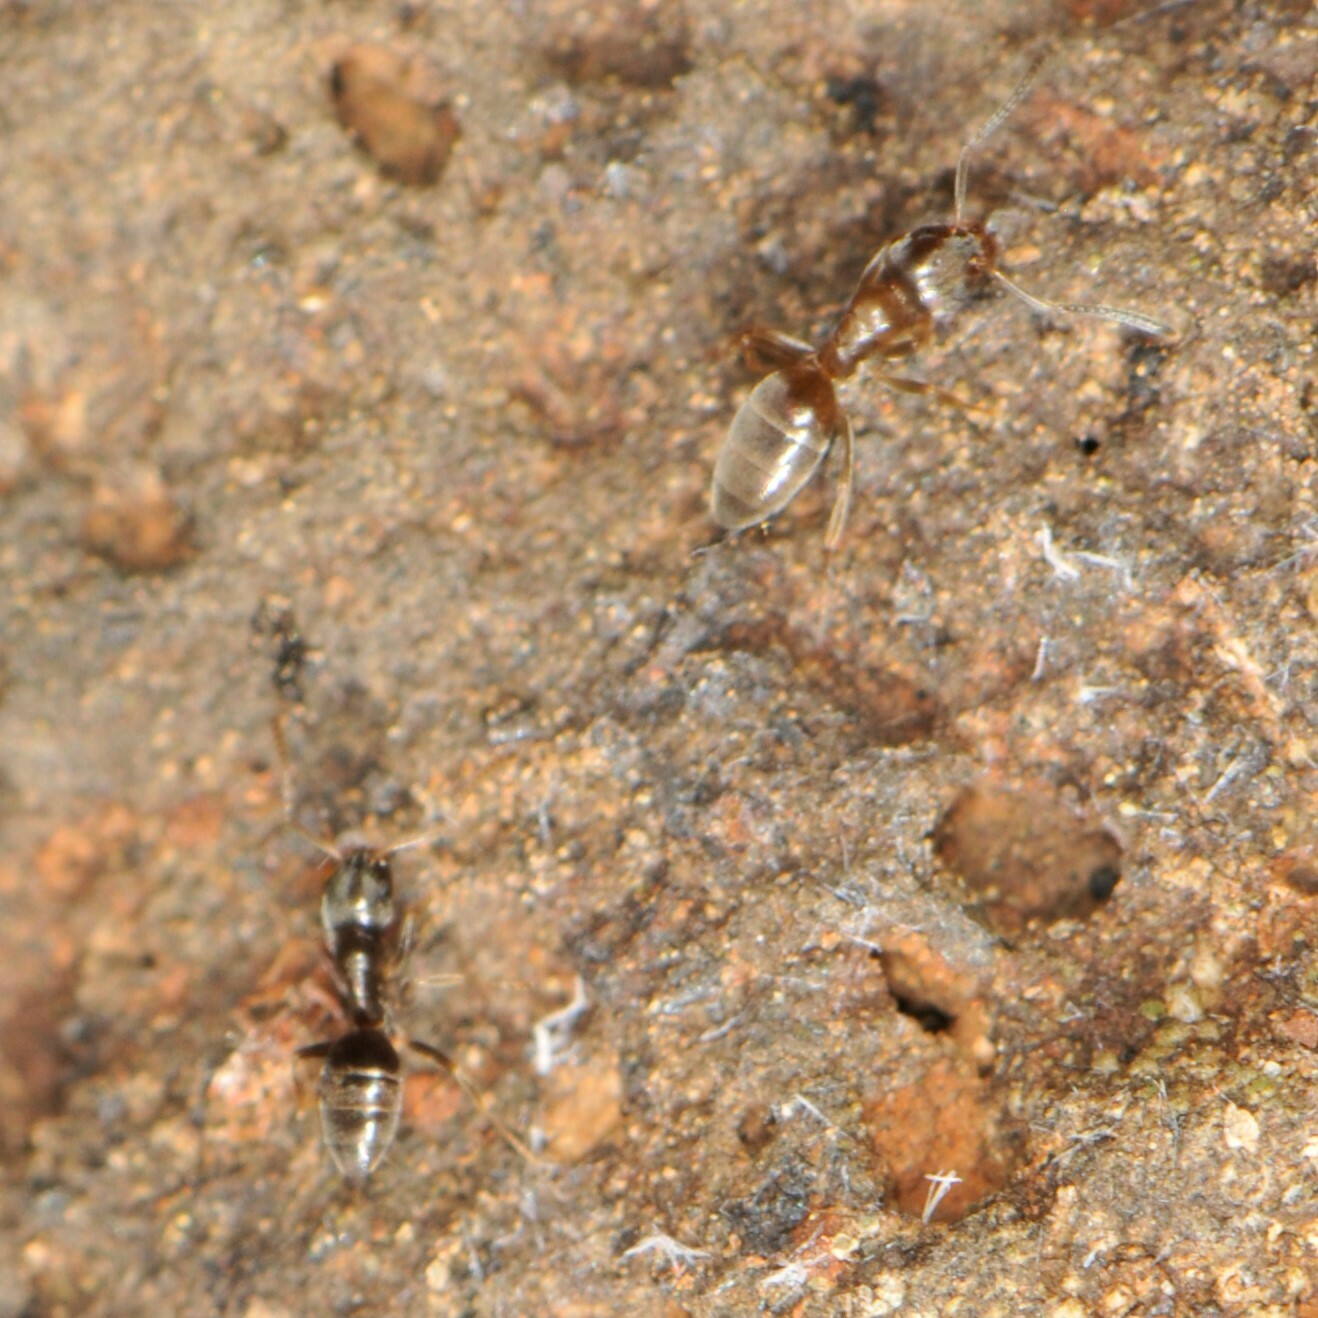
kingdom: Animalia
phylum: Arthropoda
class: Insecta
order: Hymenoptera
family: Formicidae
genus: Tapinoma
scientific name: Tapinoma sessile
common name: Odorous house ant
